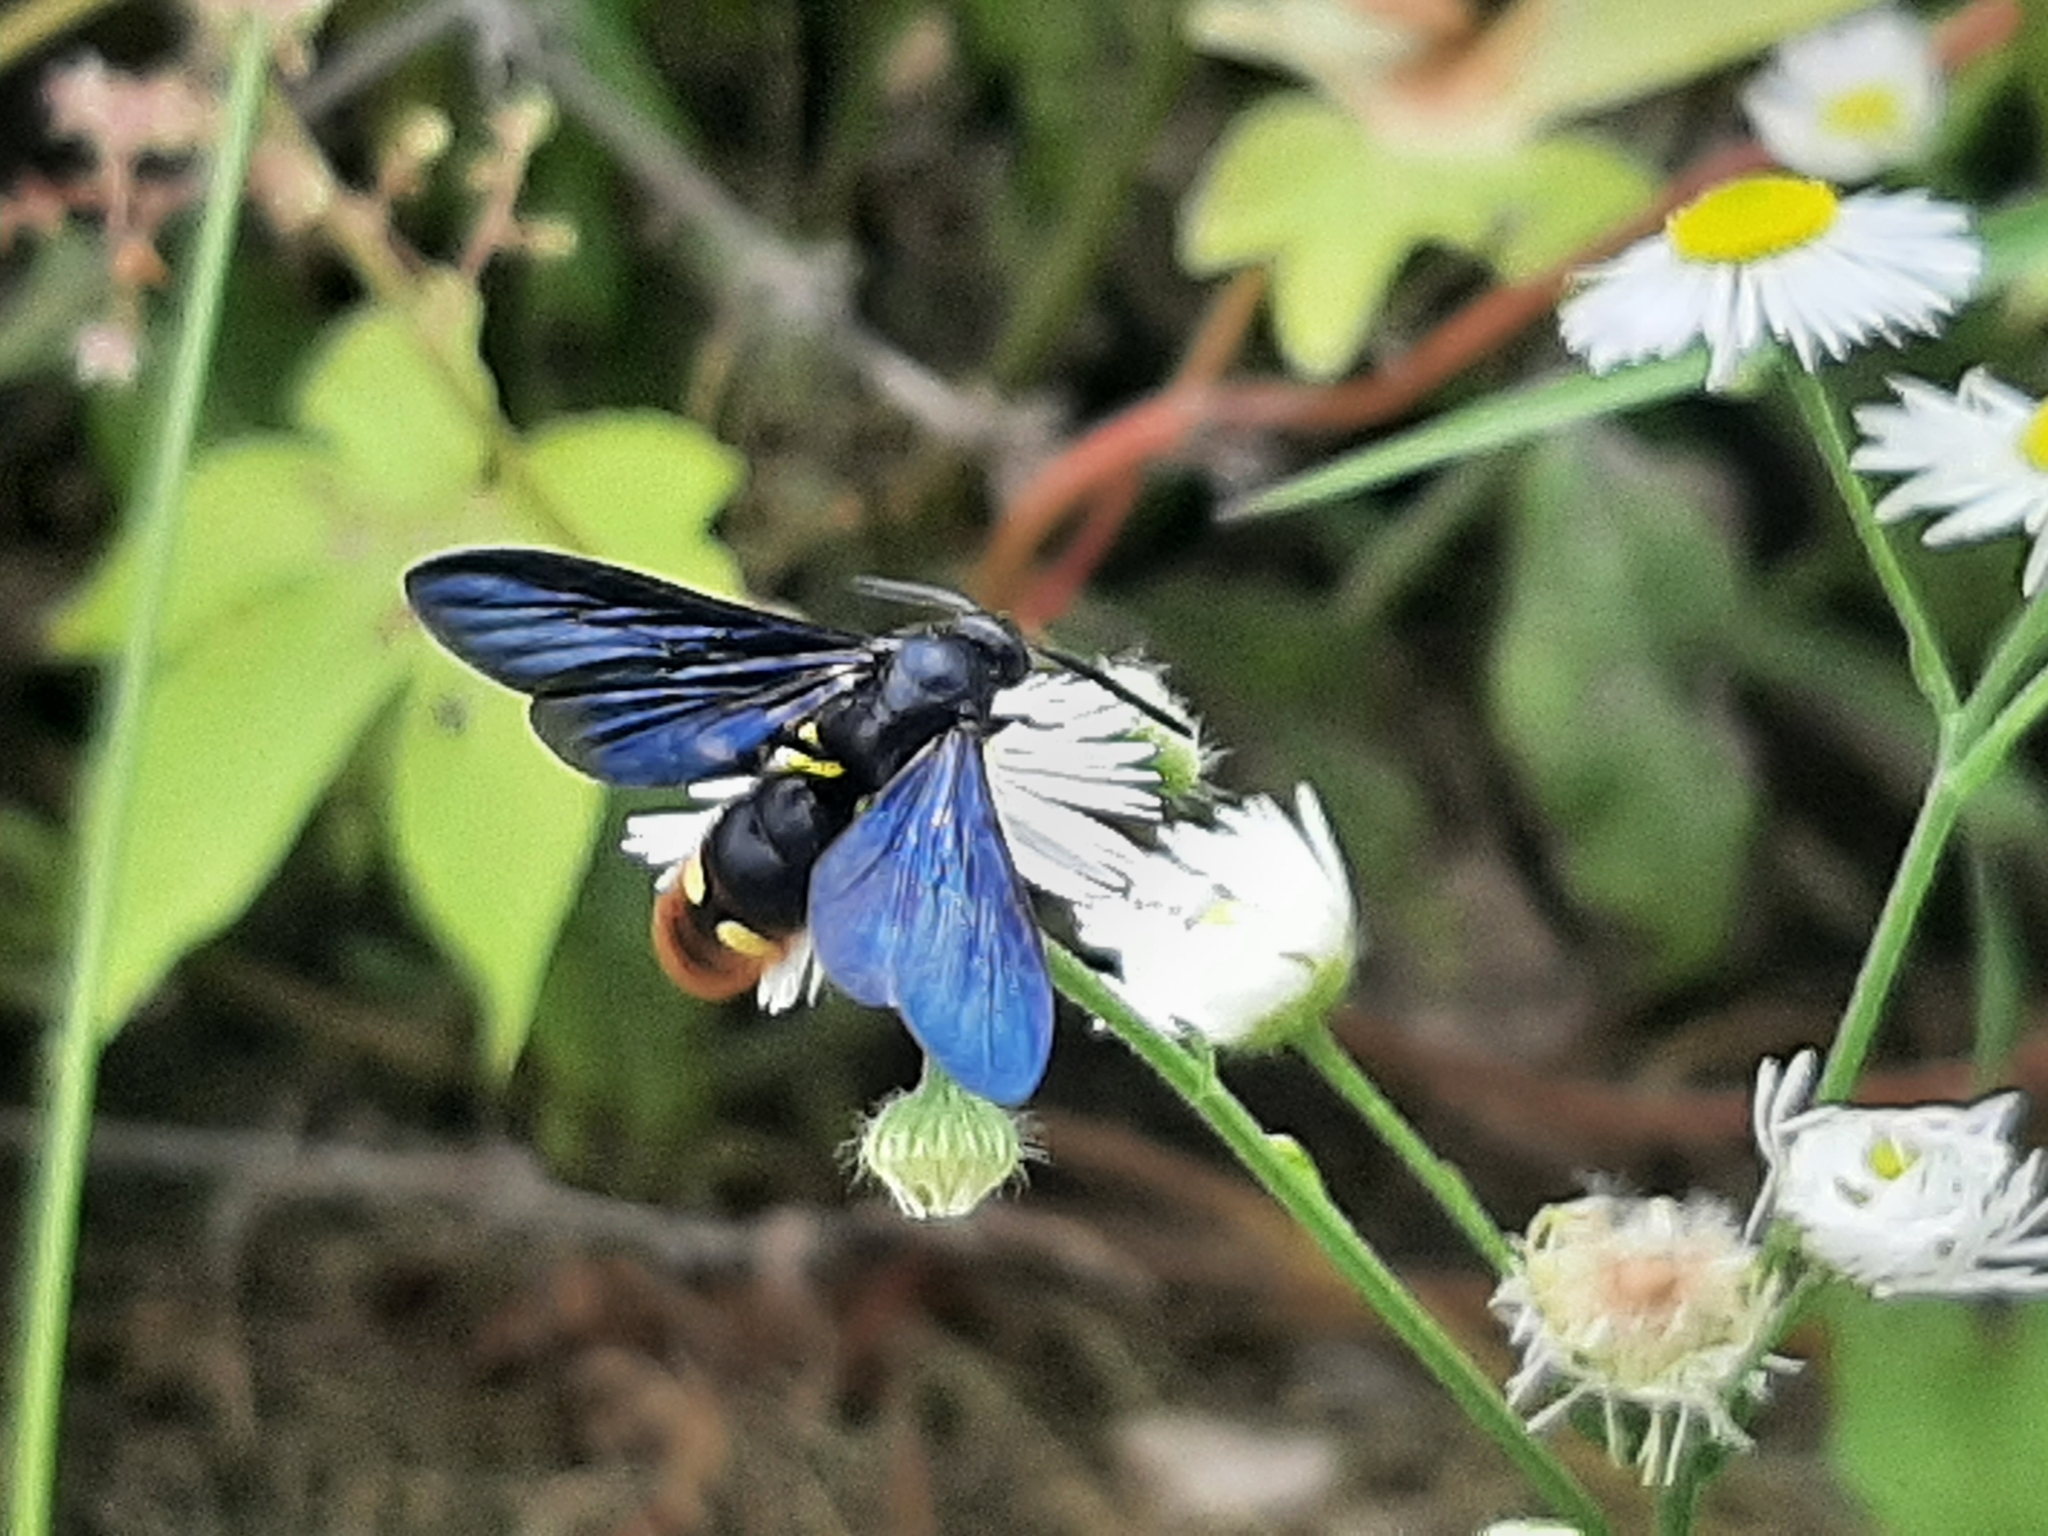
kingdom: Animalia
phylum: Arthropoda
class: Insecta
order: Hymenoptera
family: Scoliidae
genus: Scolia
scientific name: Scolia dubia
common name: Blue-winged scoliid wasp
